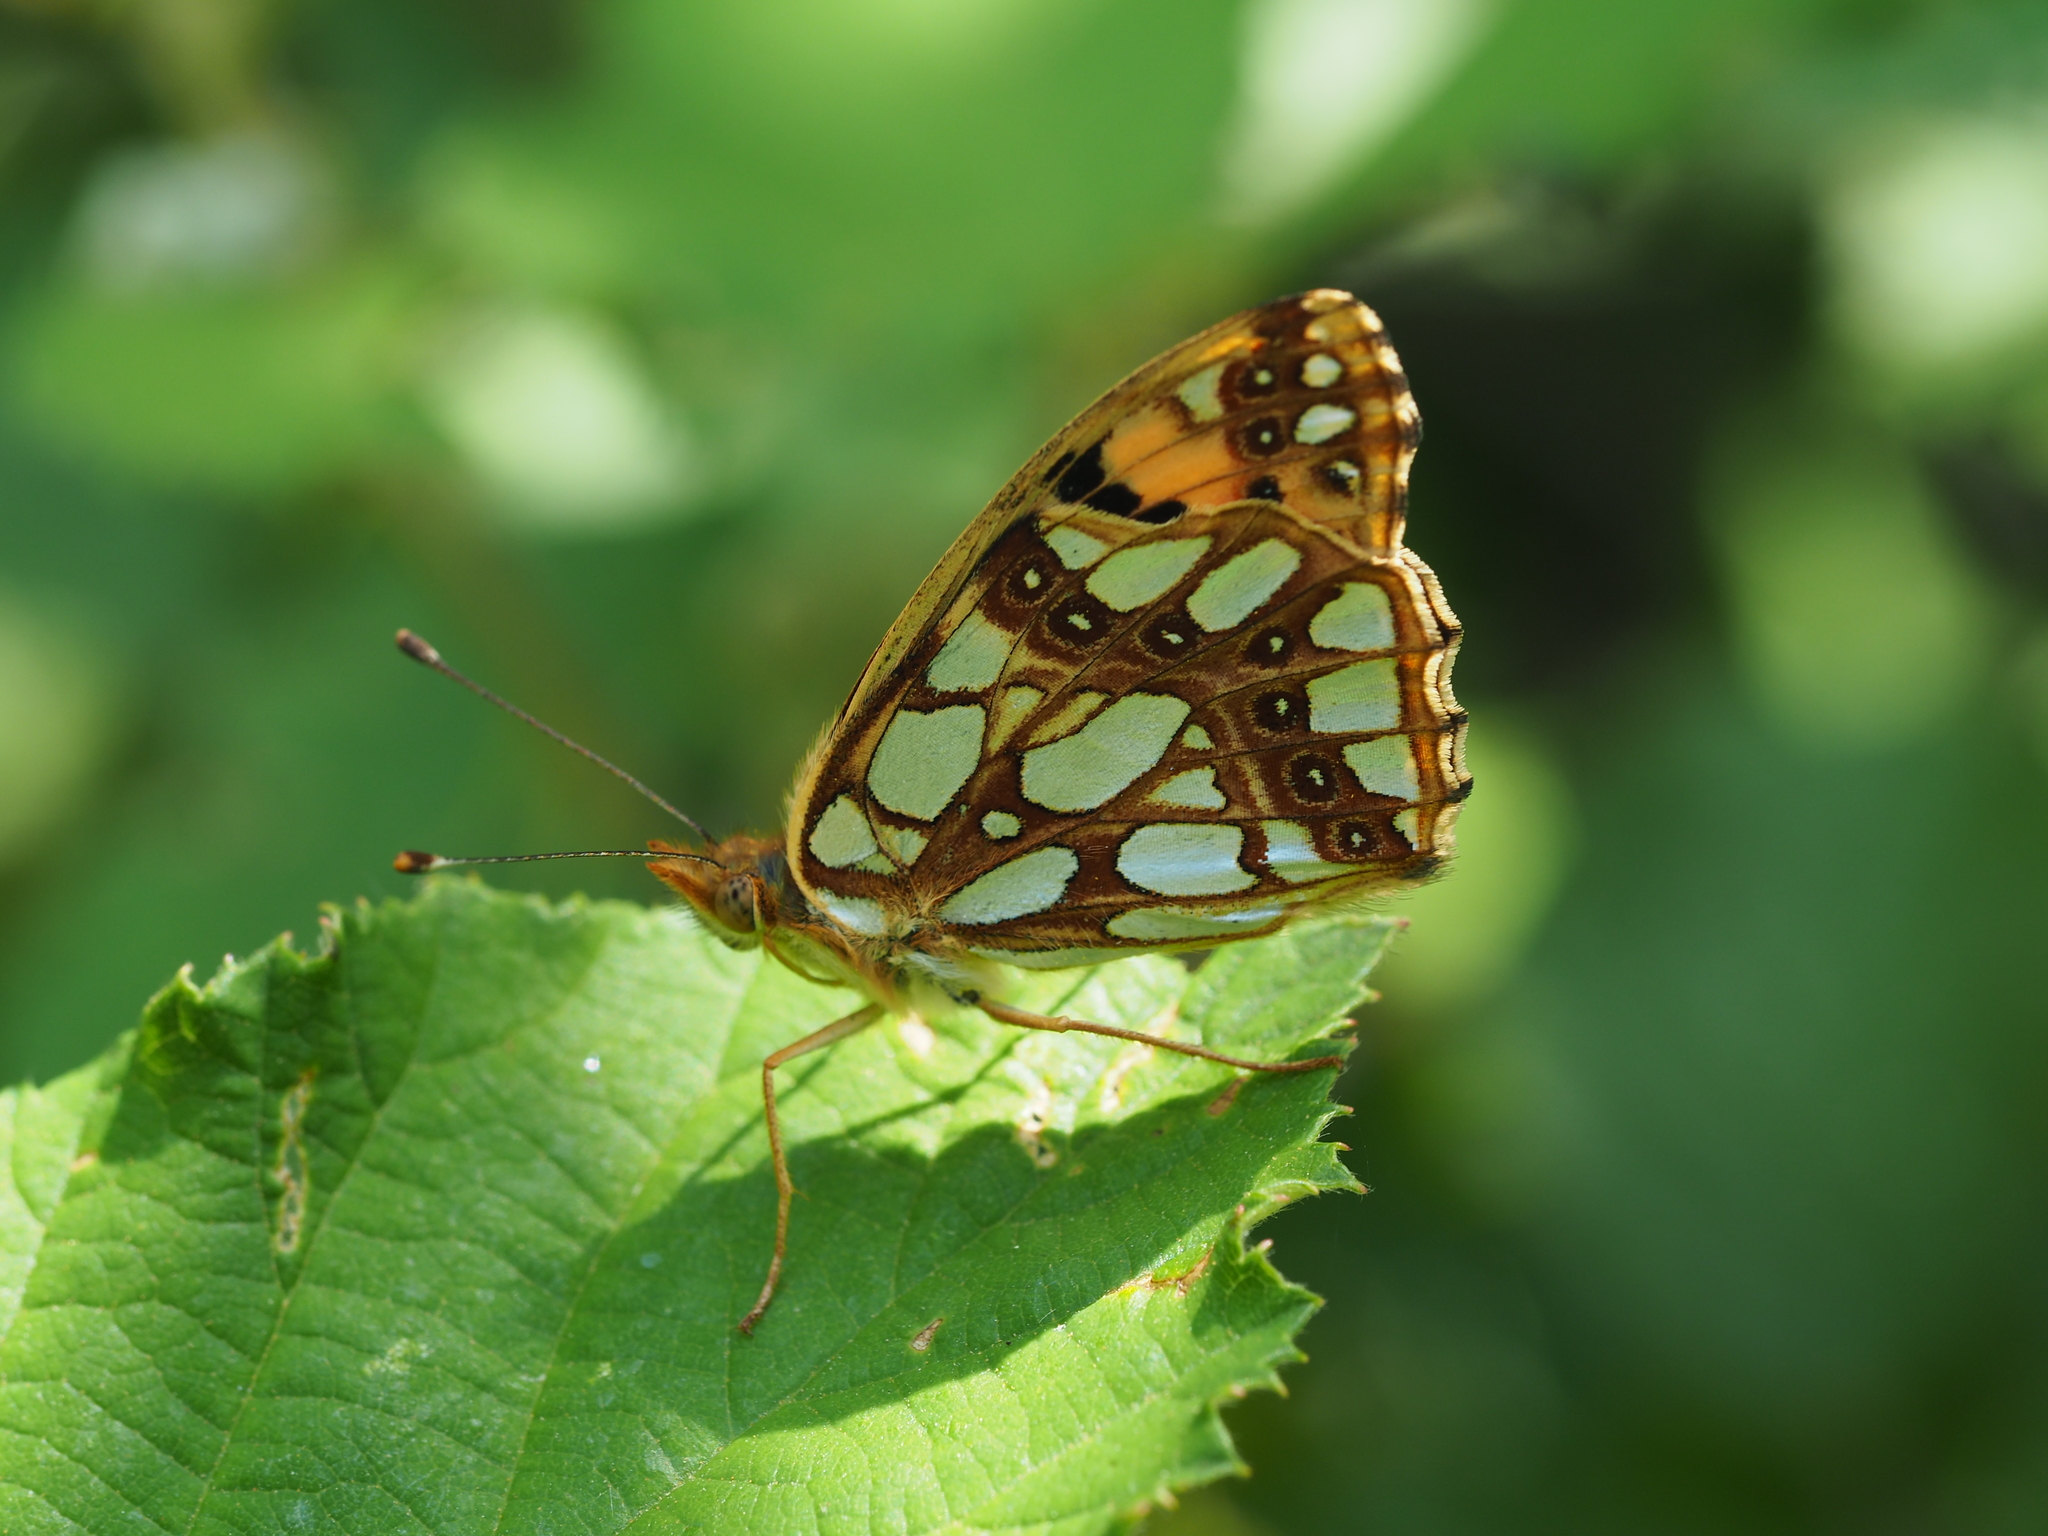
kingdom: Animalia
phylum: Arthropoda
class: Insecta
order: Lepidoptera
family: Nymphalidae
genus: Issoria
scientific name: Issoria lathonia
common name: Queen of spain fritillary
